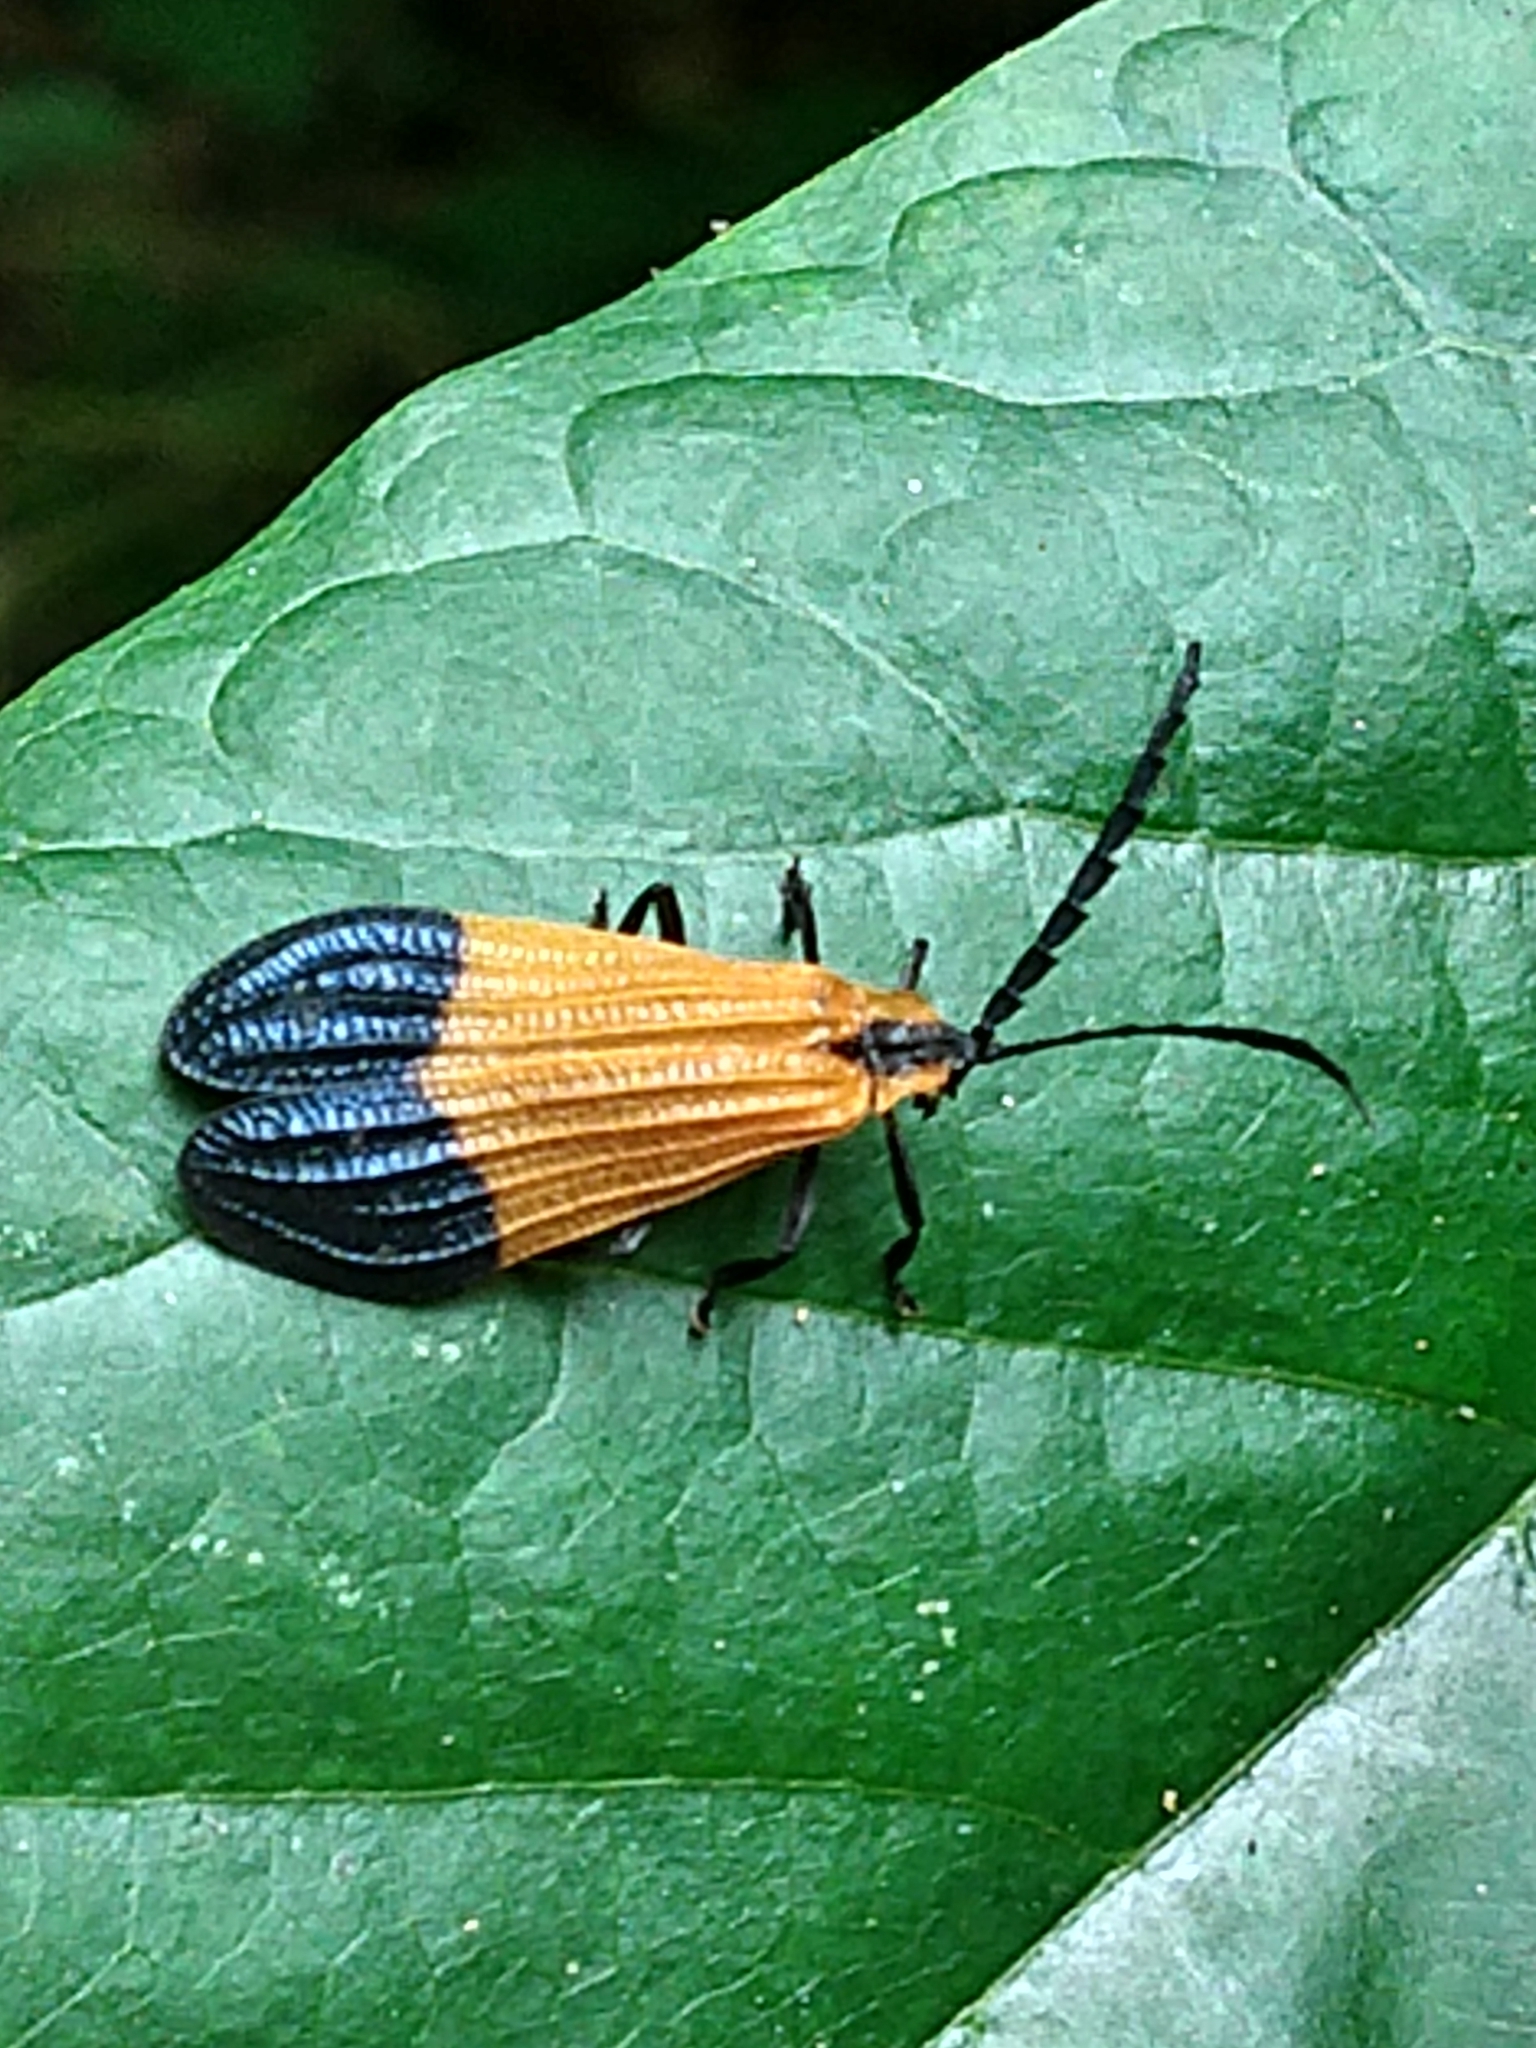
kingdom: Animalia
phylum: Arthropoda
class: Insecta
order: Coleoptera
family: Lycidae
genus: Calopteron
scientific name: Calopteron terminale
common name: End band net-winged beetle
